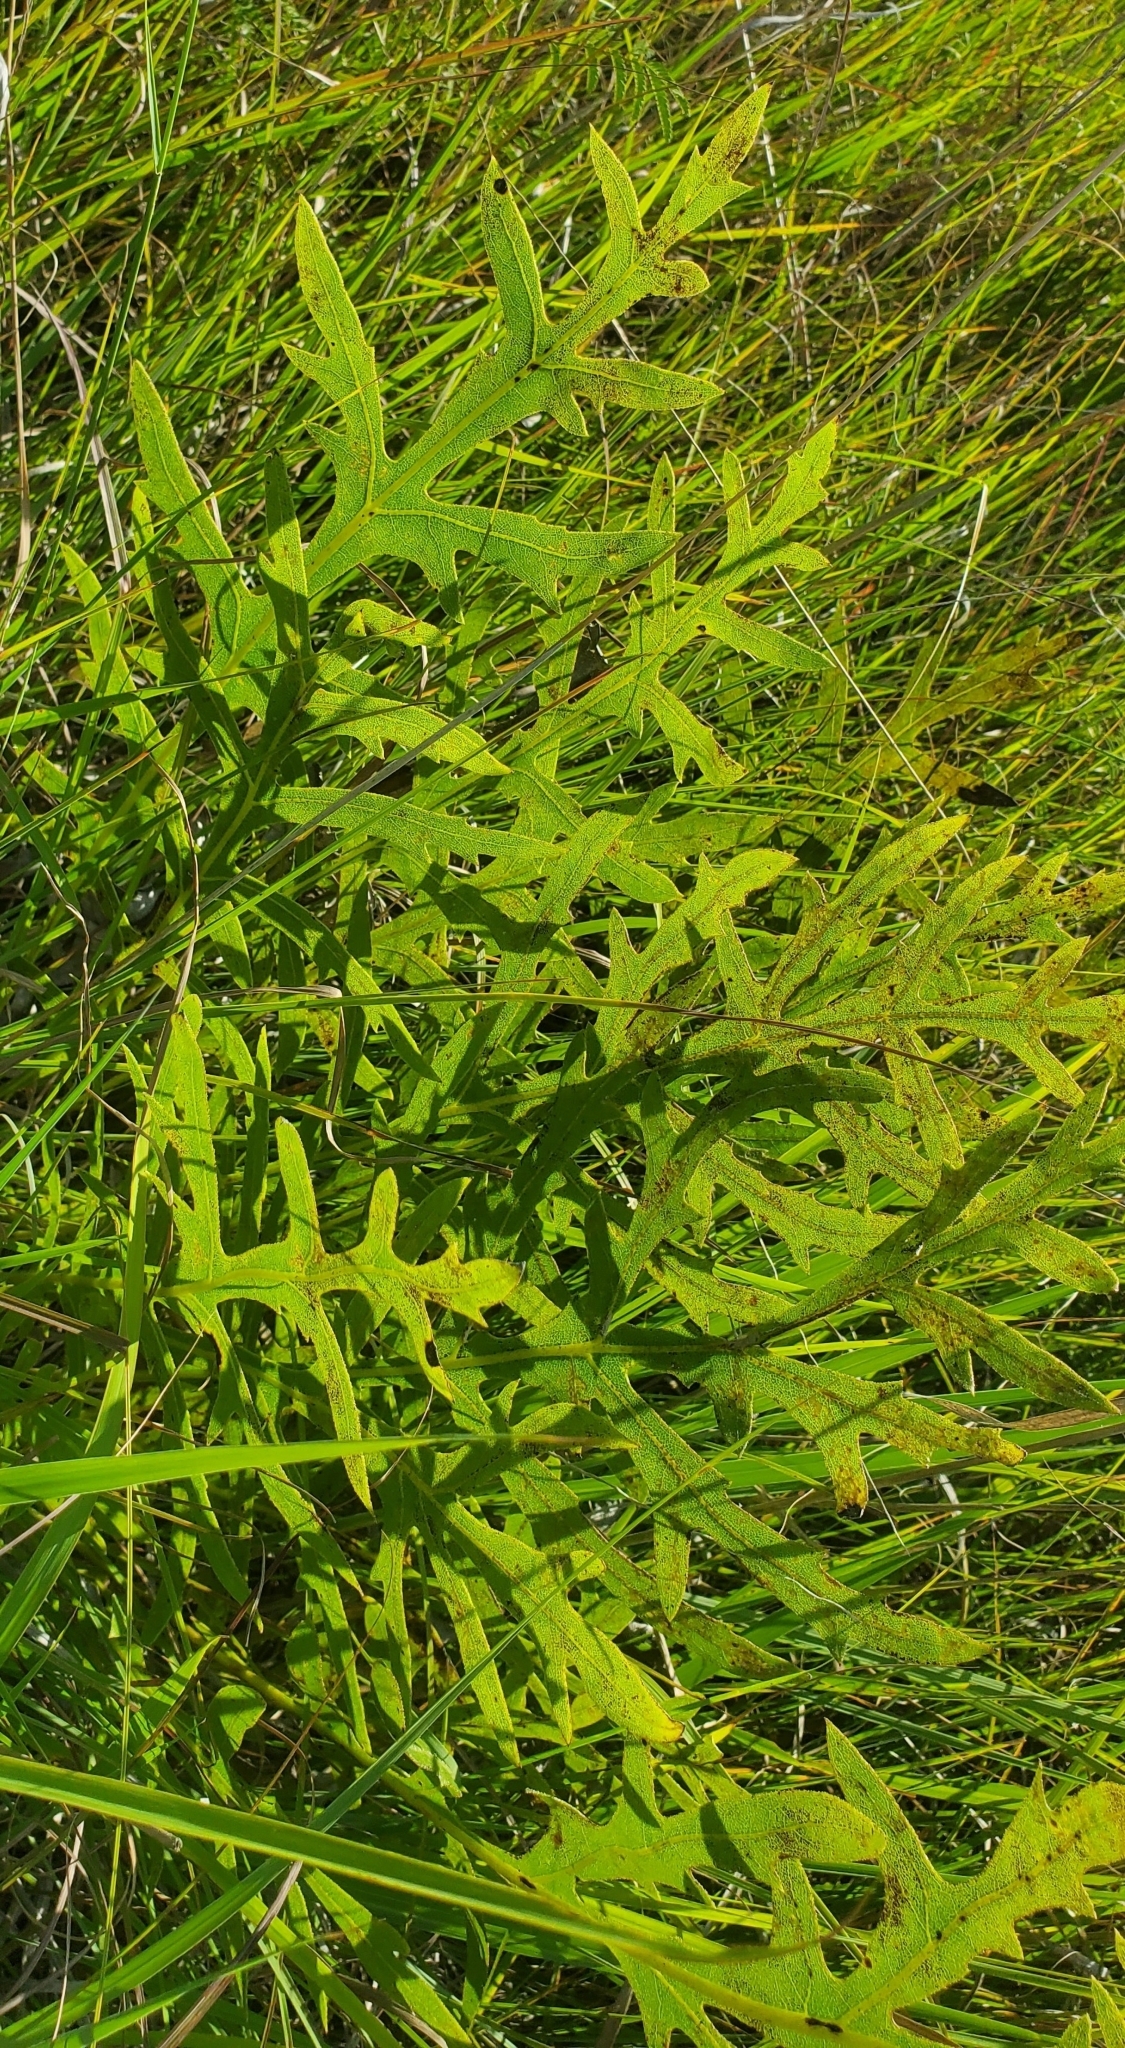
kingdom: Plantae
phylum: Tracheophyta
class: Magnoliopsida
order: Asterales
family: Asteraceae
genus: Silphium
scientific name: Silphium laciniatum
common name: Polarplant
